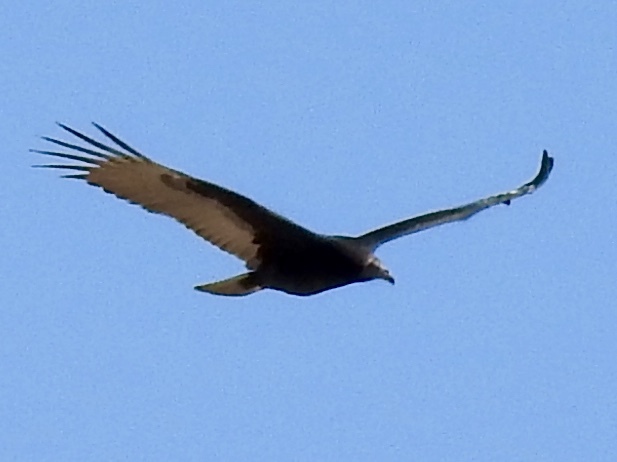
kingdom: Animalia
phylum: Chordata
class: Aves
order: Accipitriformes
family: Cathartidae
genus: Cathartes
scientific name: Cathartes aura
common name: Turkey vulture
